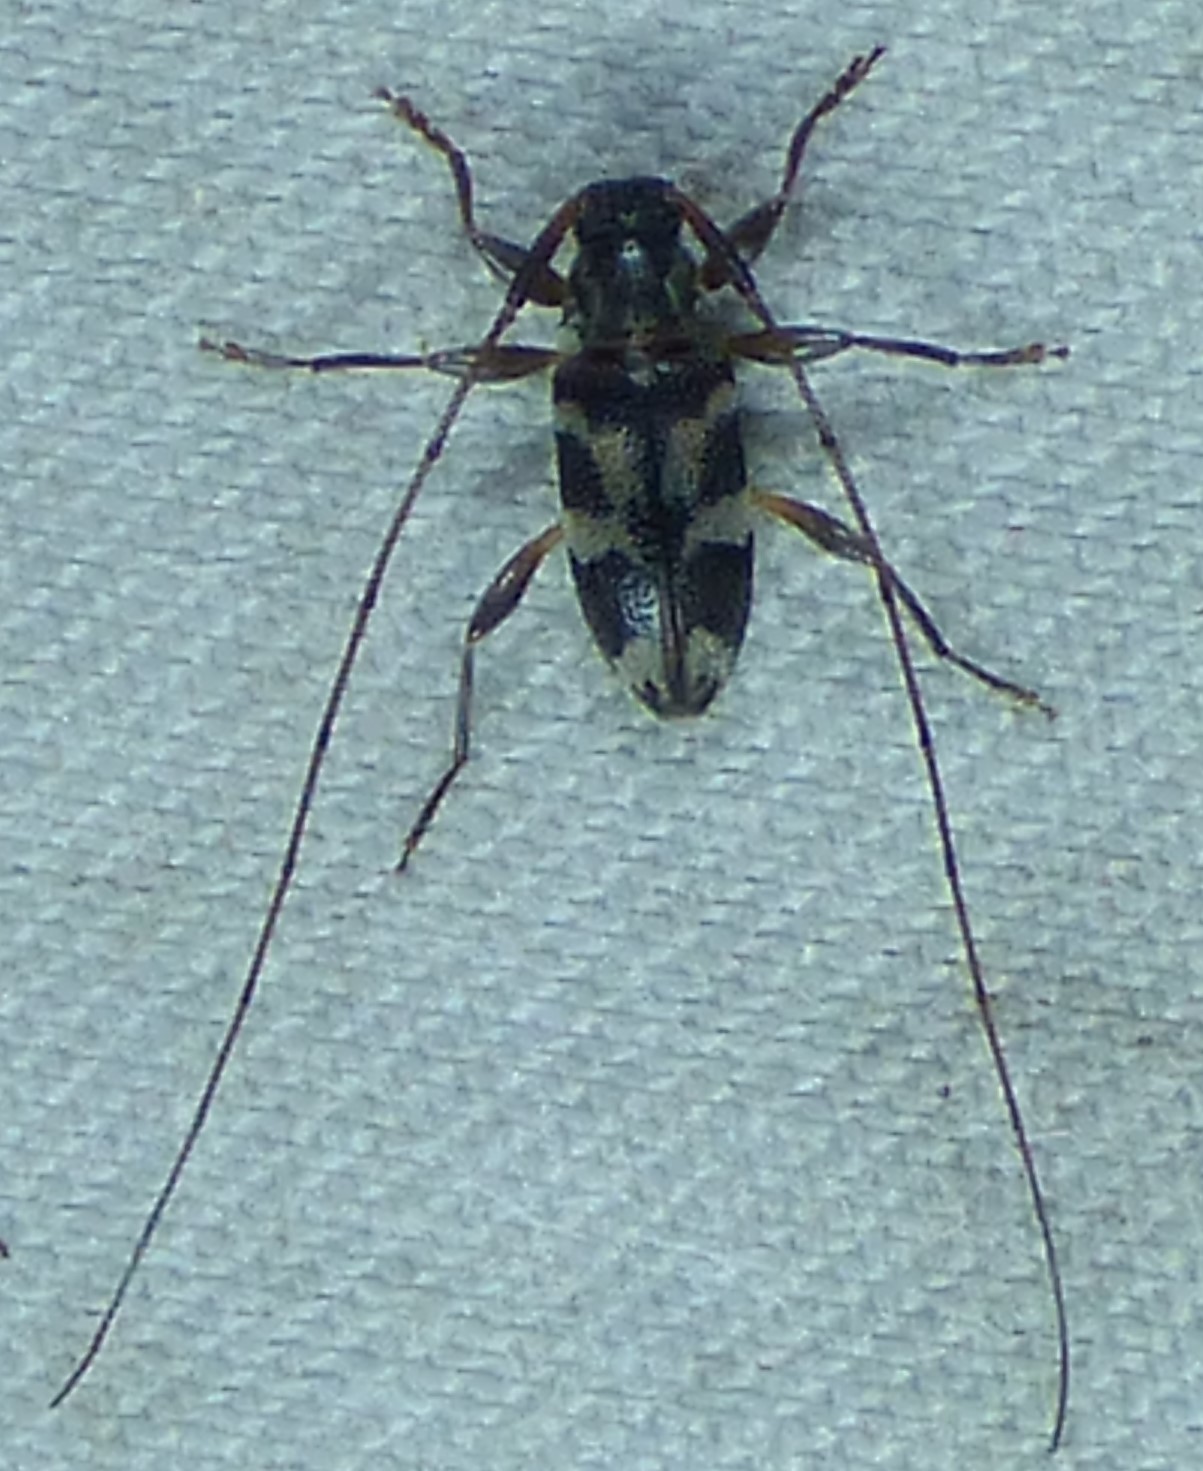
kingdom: Animalia
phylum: Arthropoda
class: Insecta
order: Coleoptera
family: Cerambycidae
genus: Urgleptes
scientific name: Urgleptes facetus
